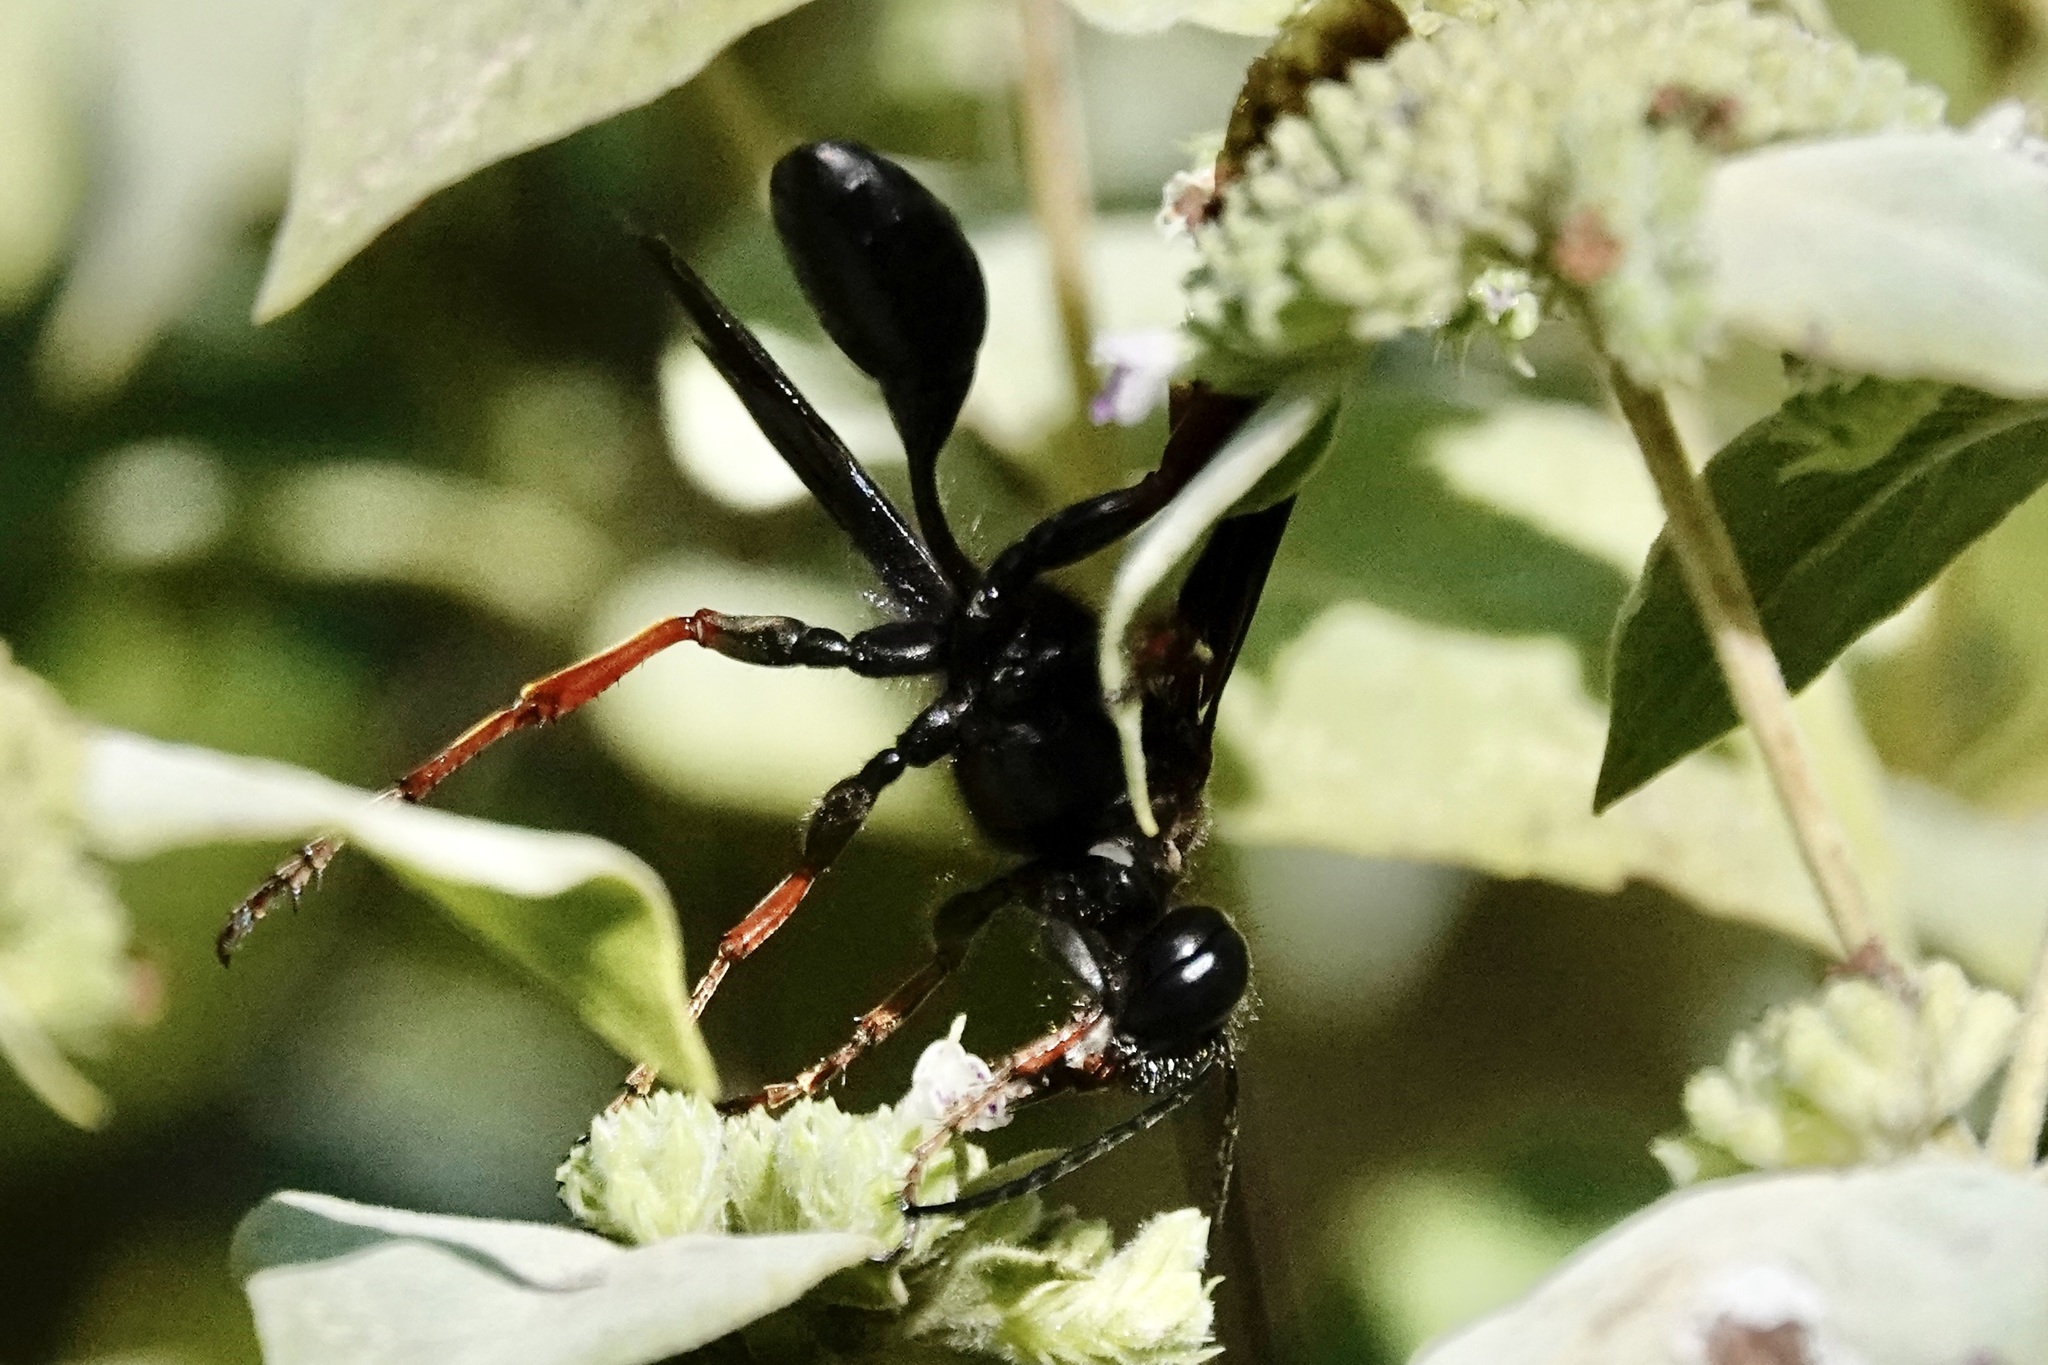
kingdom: Animalia
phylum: Arthropoda
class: Insecta
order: Hymenoptera
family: Sphecidae
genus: Isodontia
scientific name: Isodontia auripes
